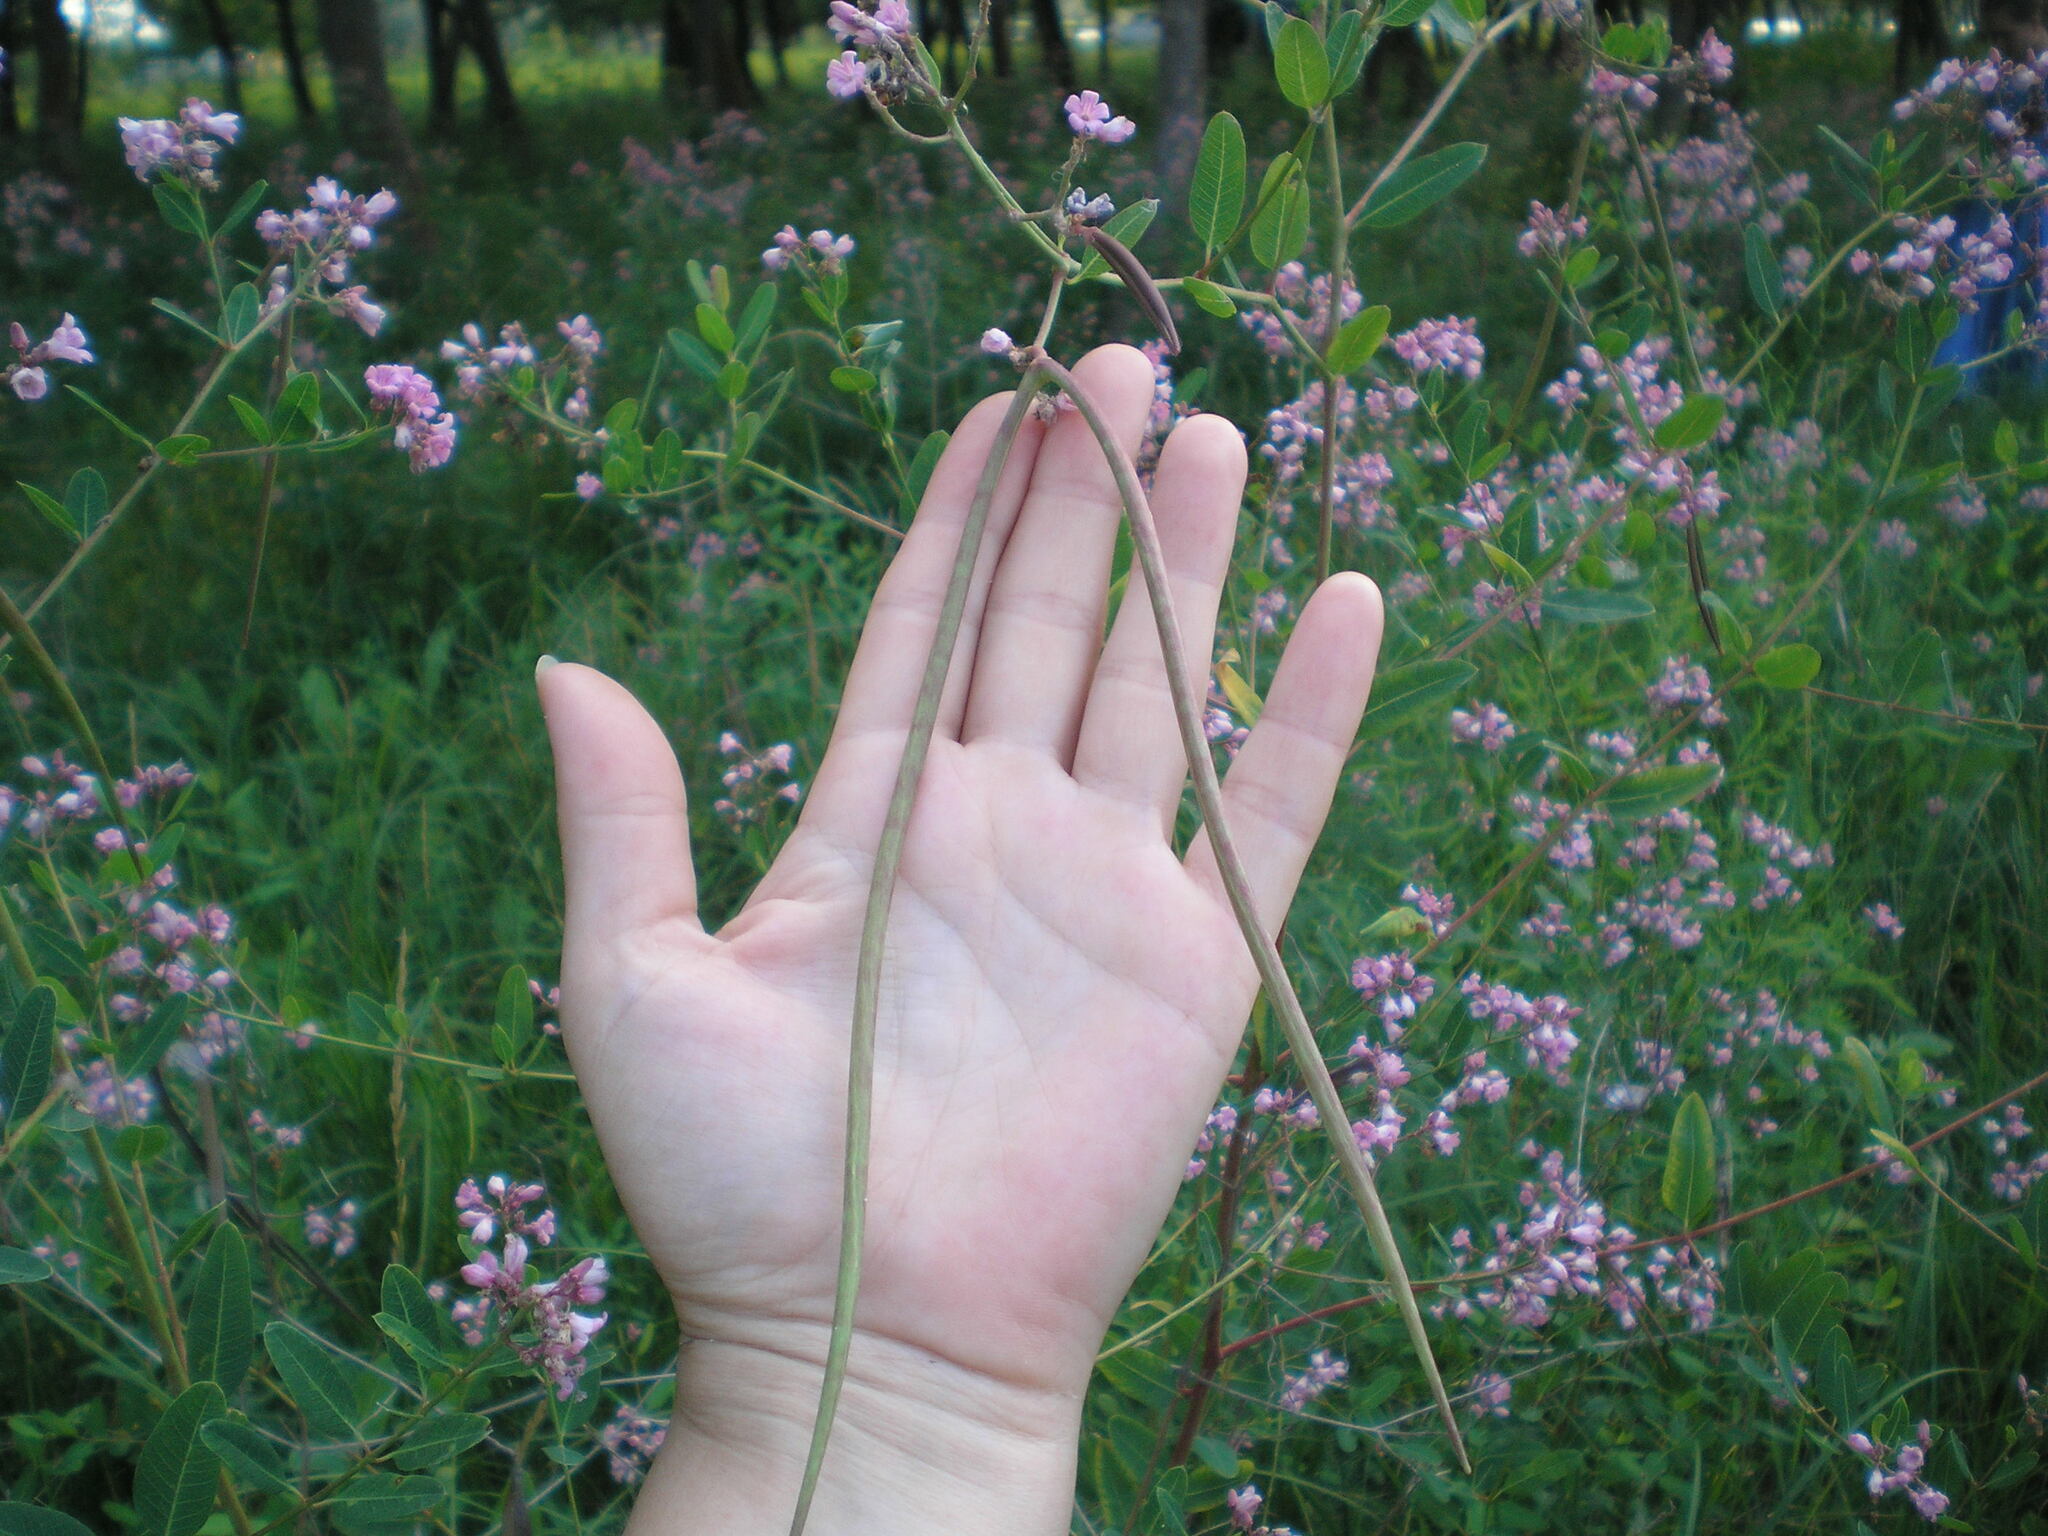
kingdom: Plantae
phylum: Tracheophyta
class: Magnoliopsida
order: Gentianales
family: Apocynaceae
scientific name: Apocynaceae
